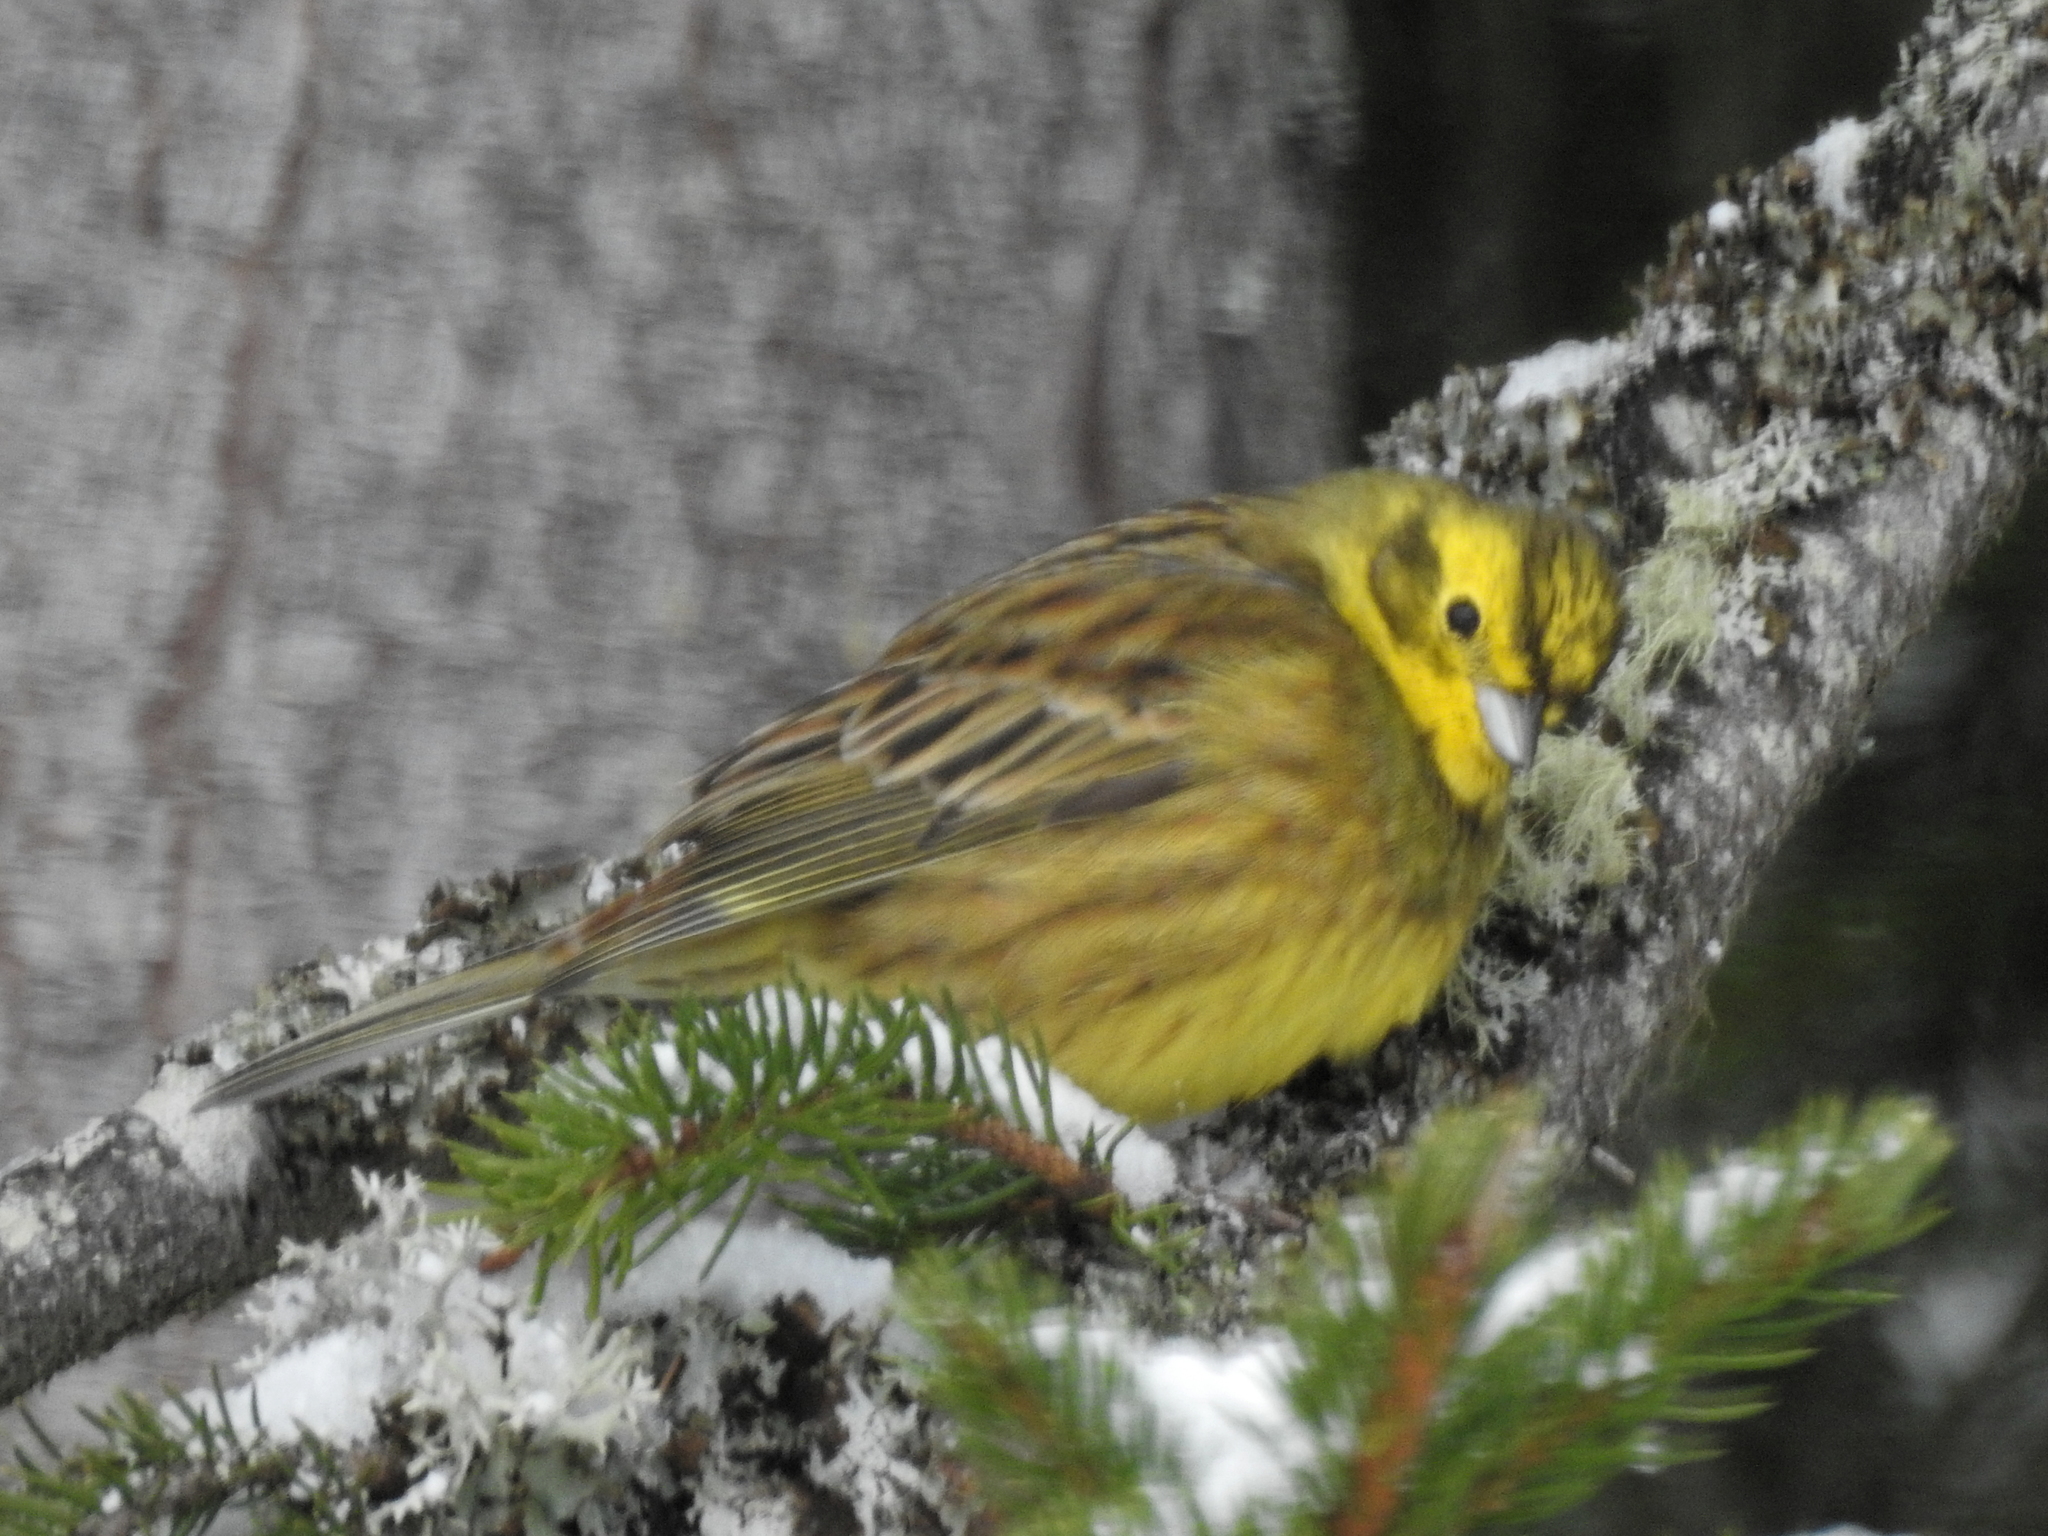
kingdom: Animalia
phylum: Chordata
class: Aves
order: Passeriformes
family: Emberizidae
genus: Emberiza
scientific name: Emberiza citrinella
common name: Yellowhammer
